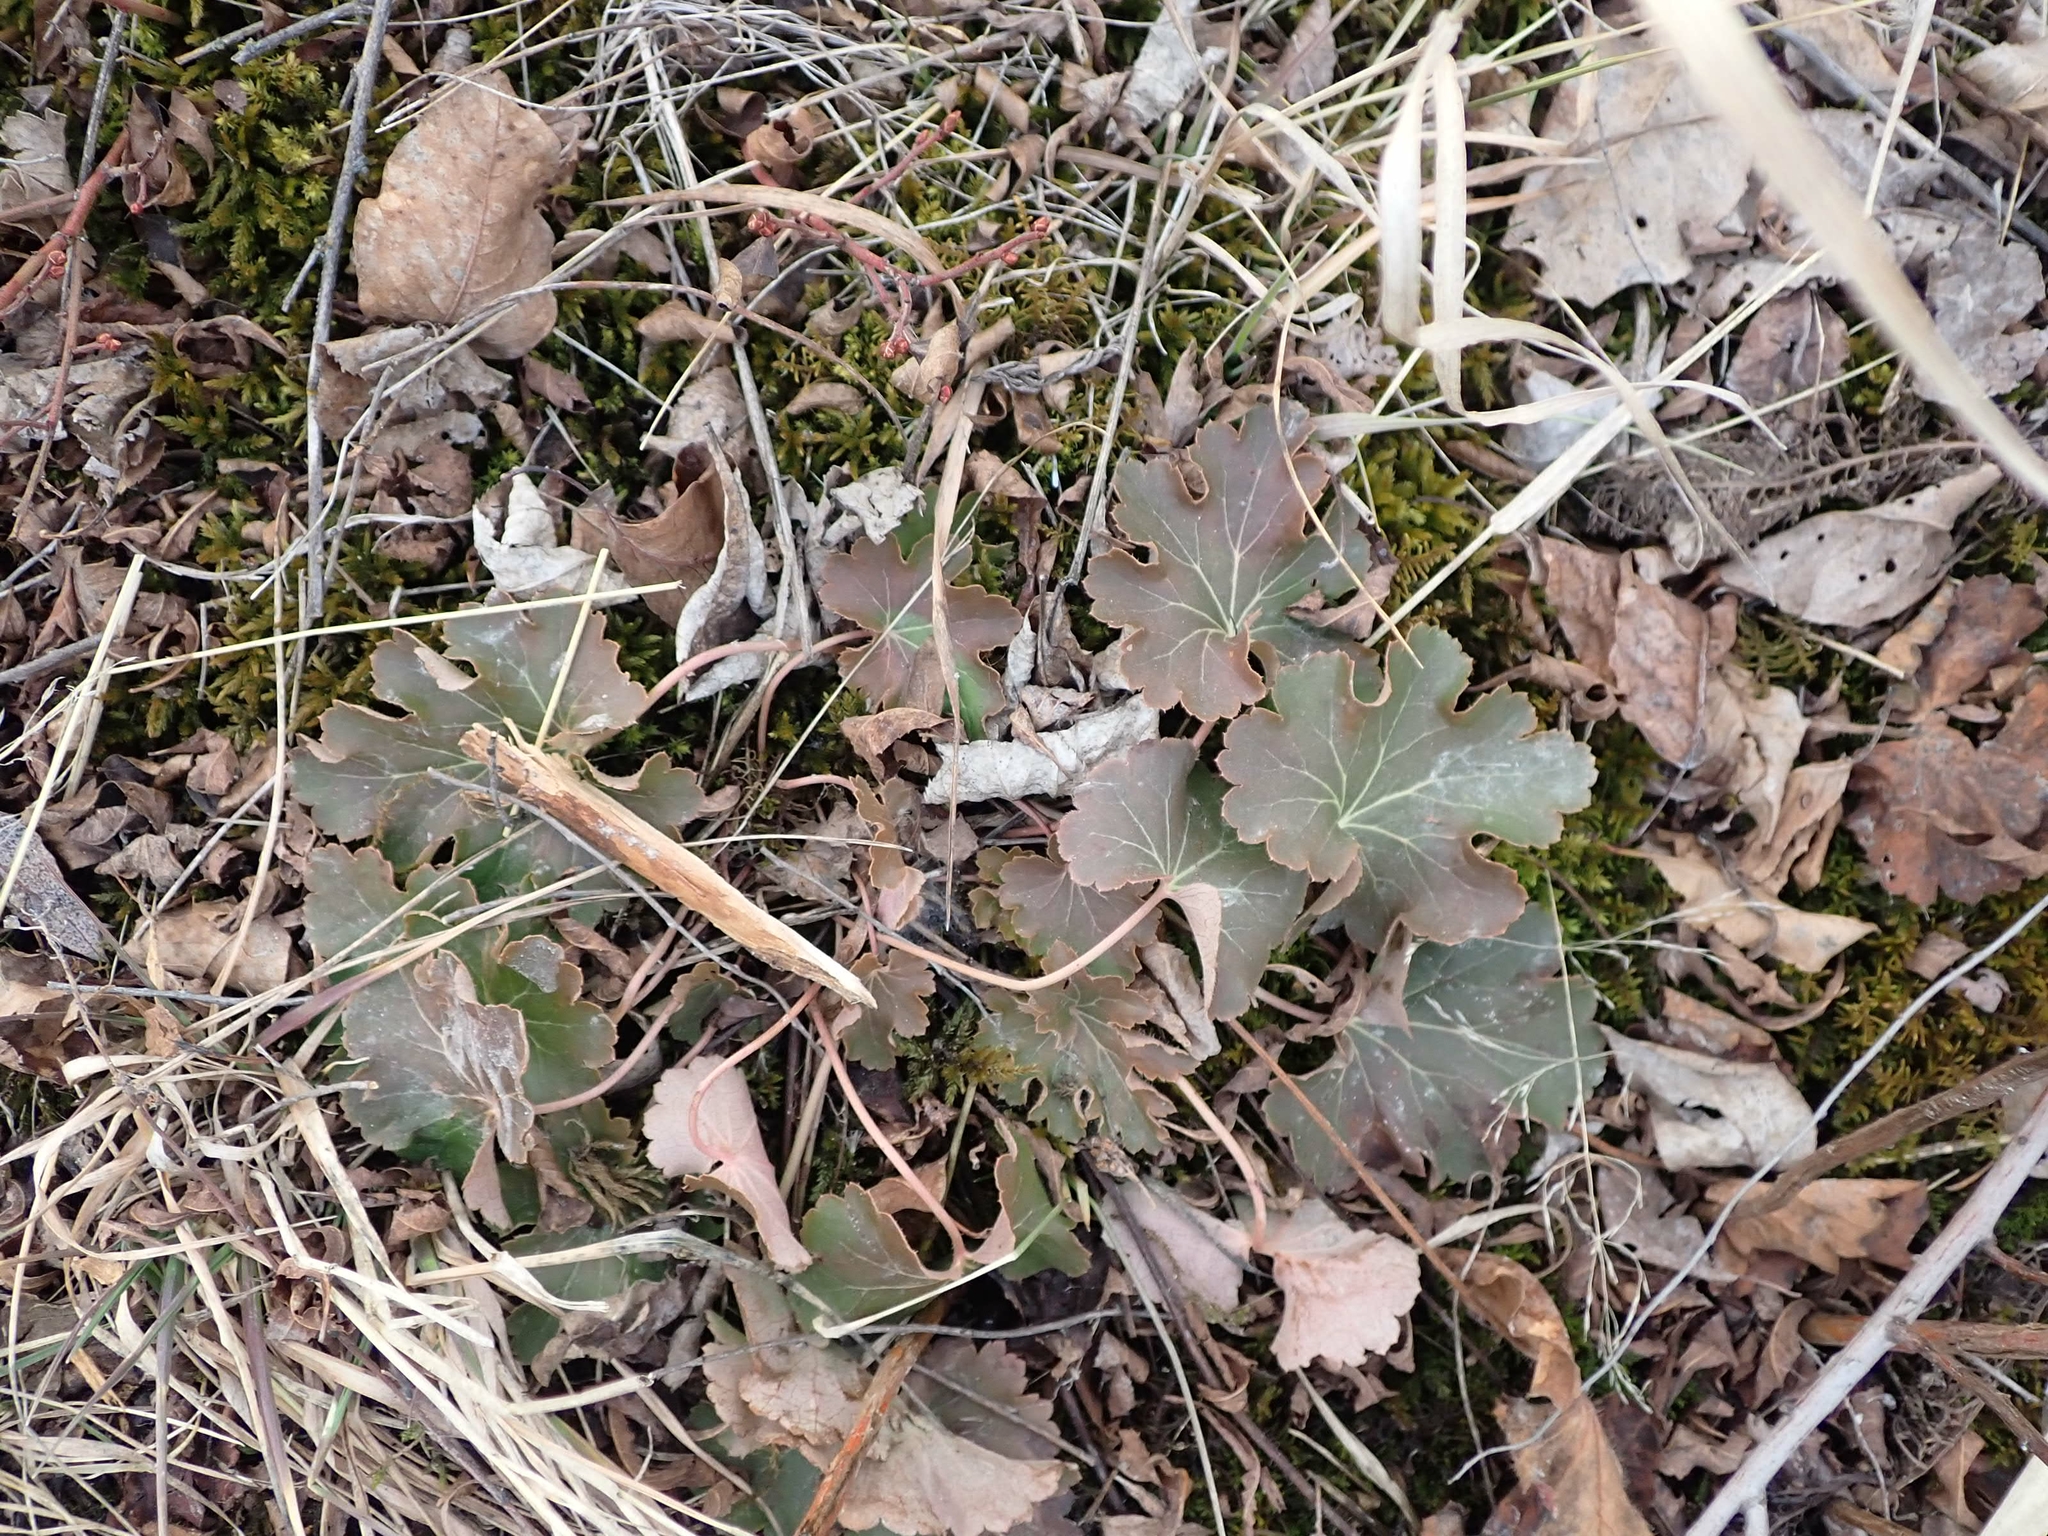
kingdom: Plantae
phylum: Tracheophyta
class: Magnoliopsida
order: Saxifragales
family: Saxifragaceae
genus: Heuchera
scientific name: Heuchera richardsonii
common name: Richardson's alumroot
